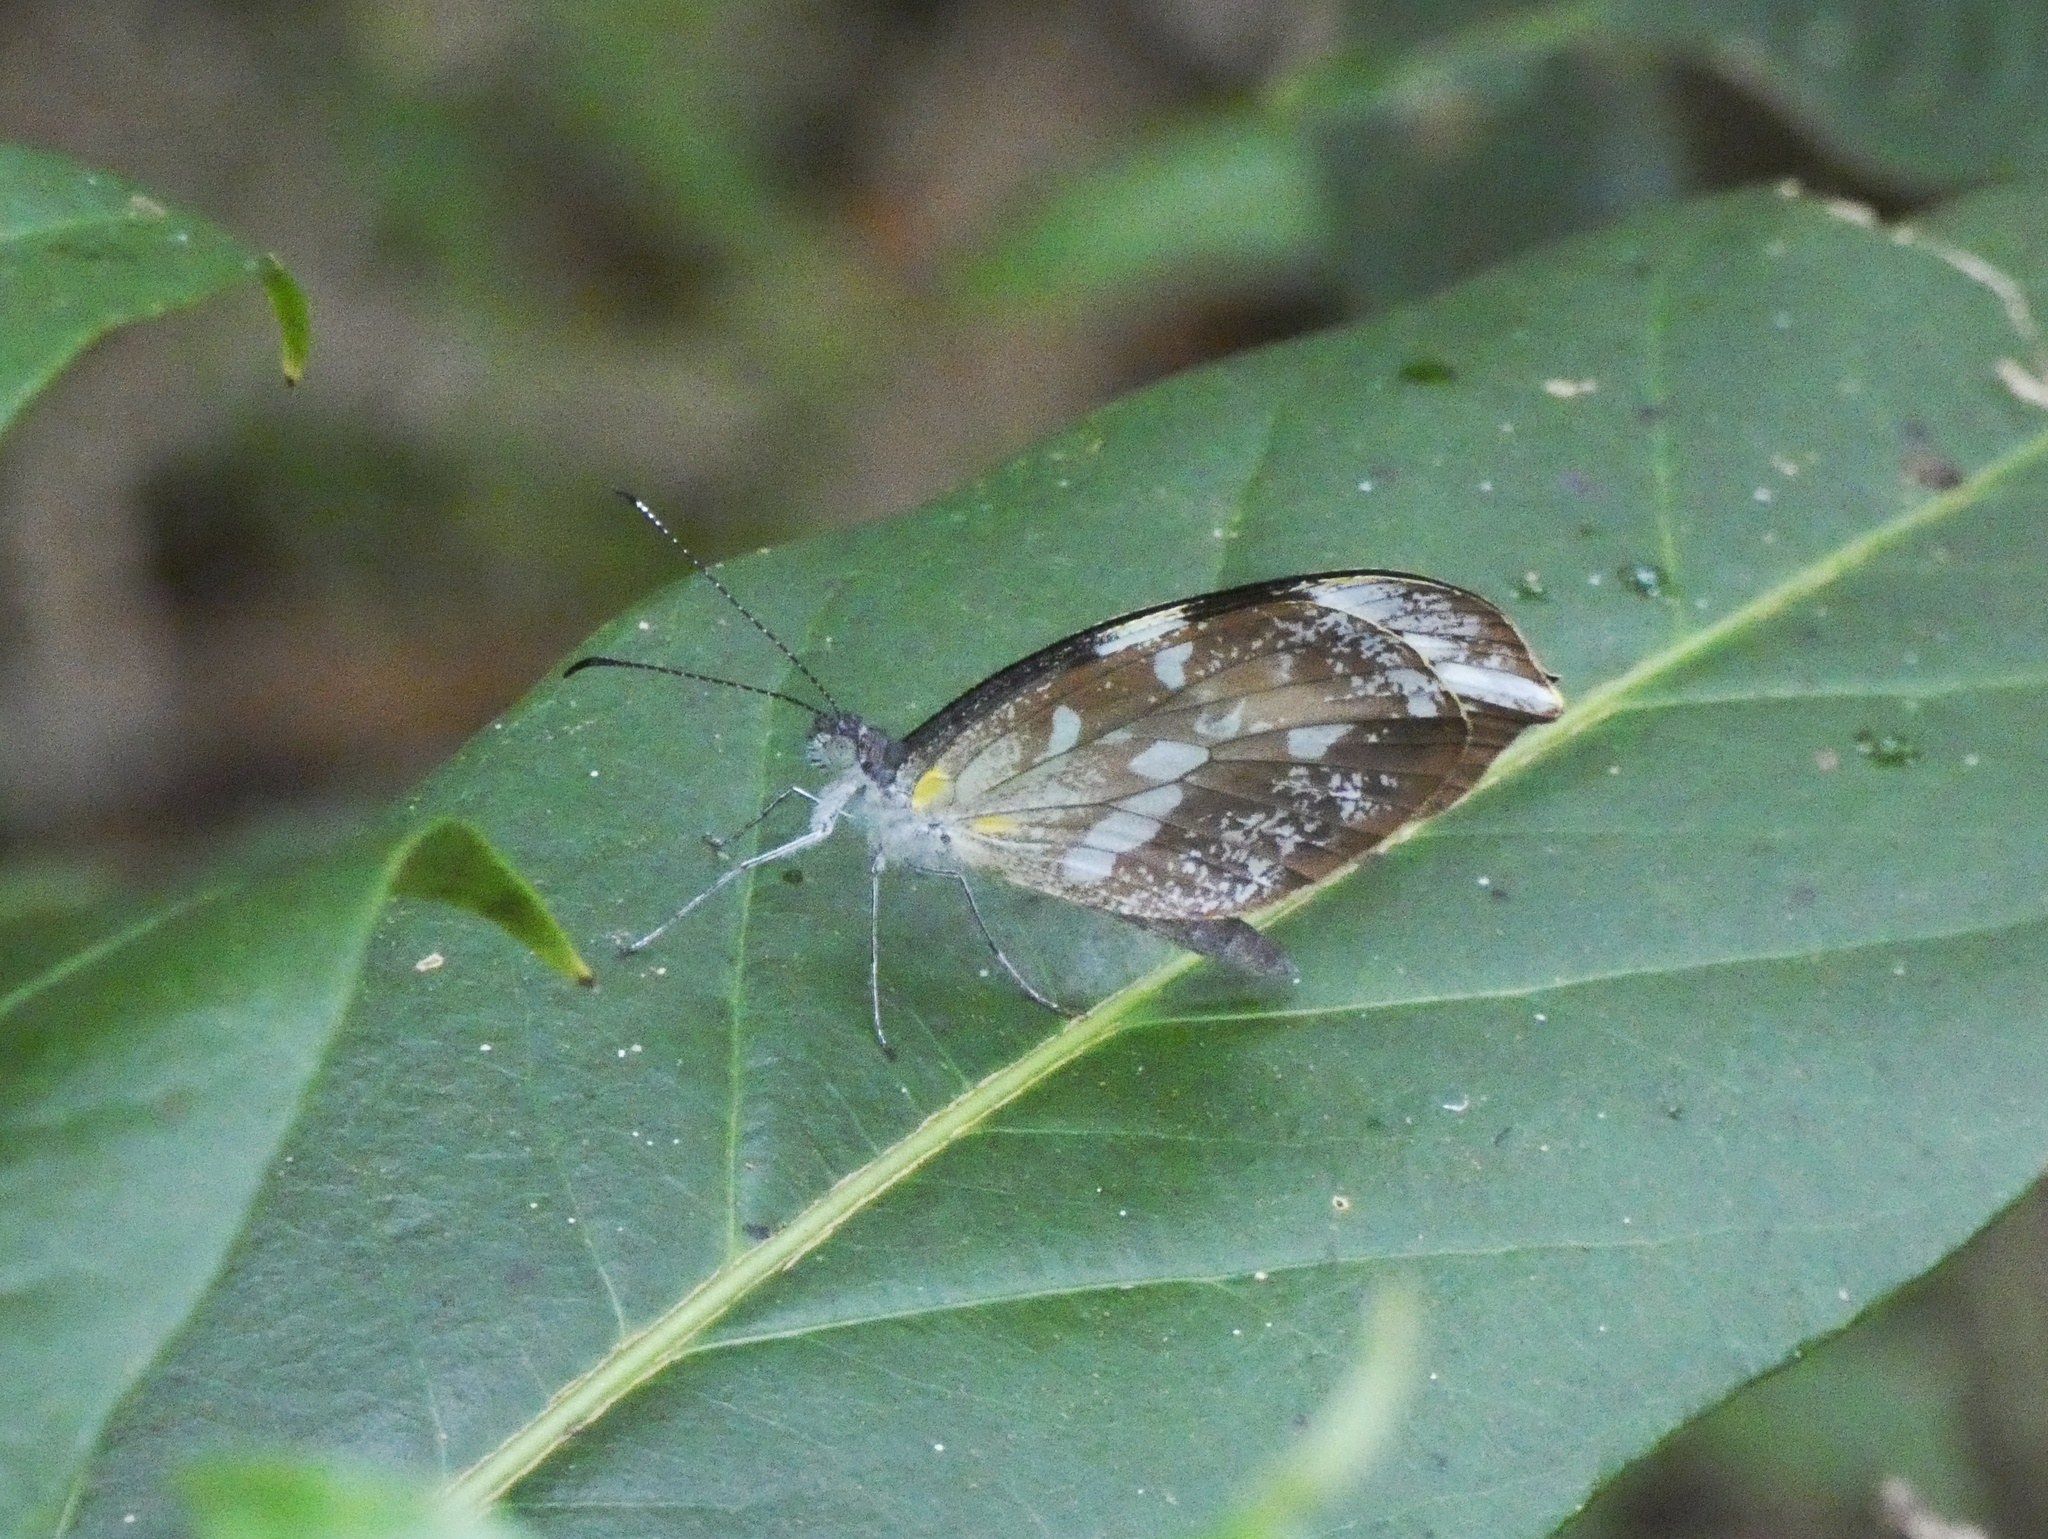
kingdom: Animalia
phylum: Arthropoda
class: Insecta
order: Lepidoptera
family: Pieridae
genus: Dismorphia
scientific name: Dismorphia crisia
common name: Crisia mimic-white
